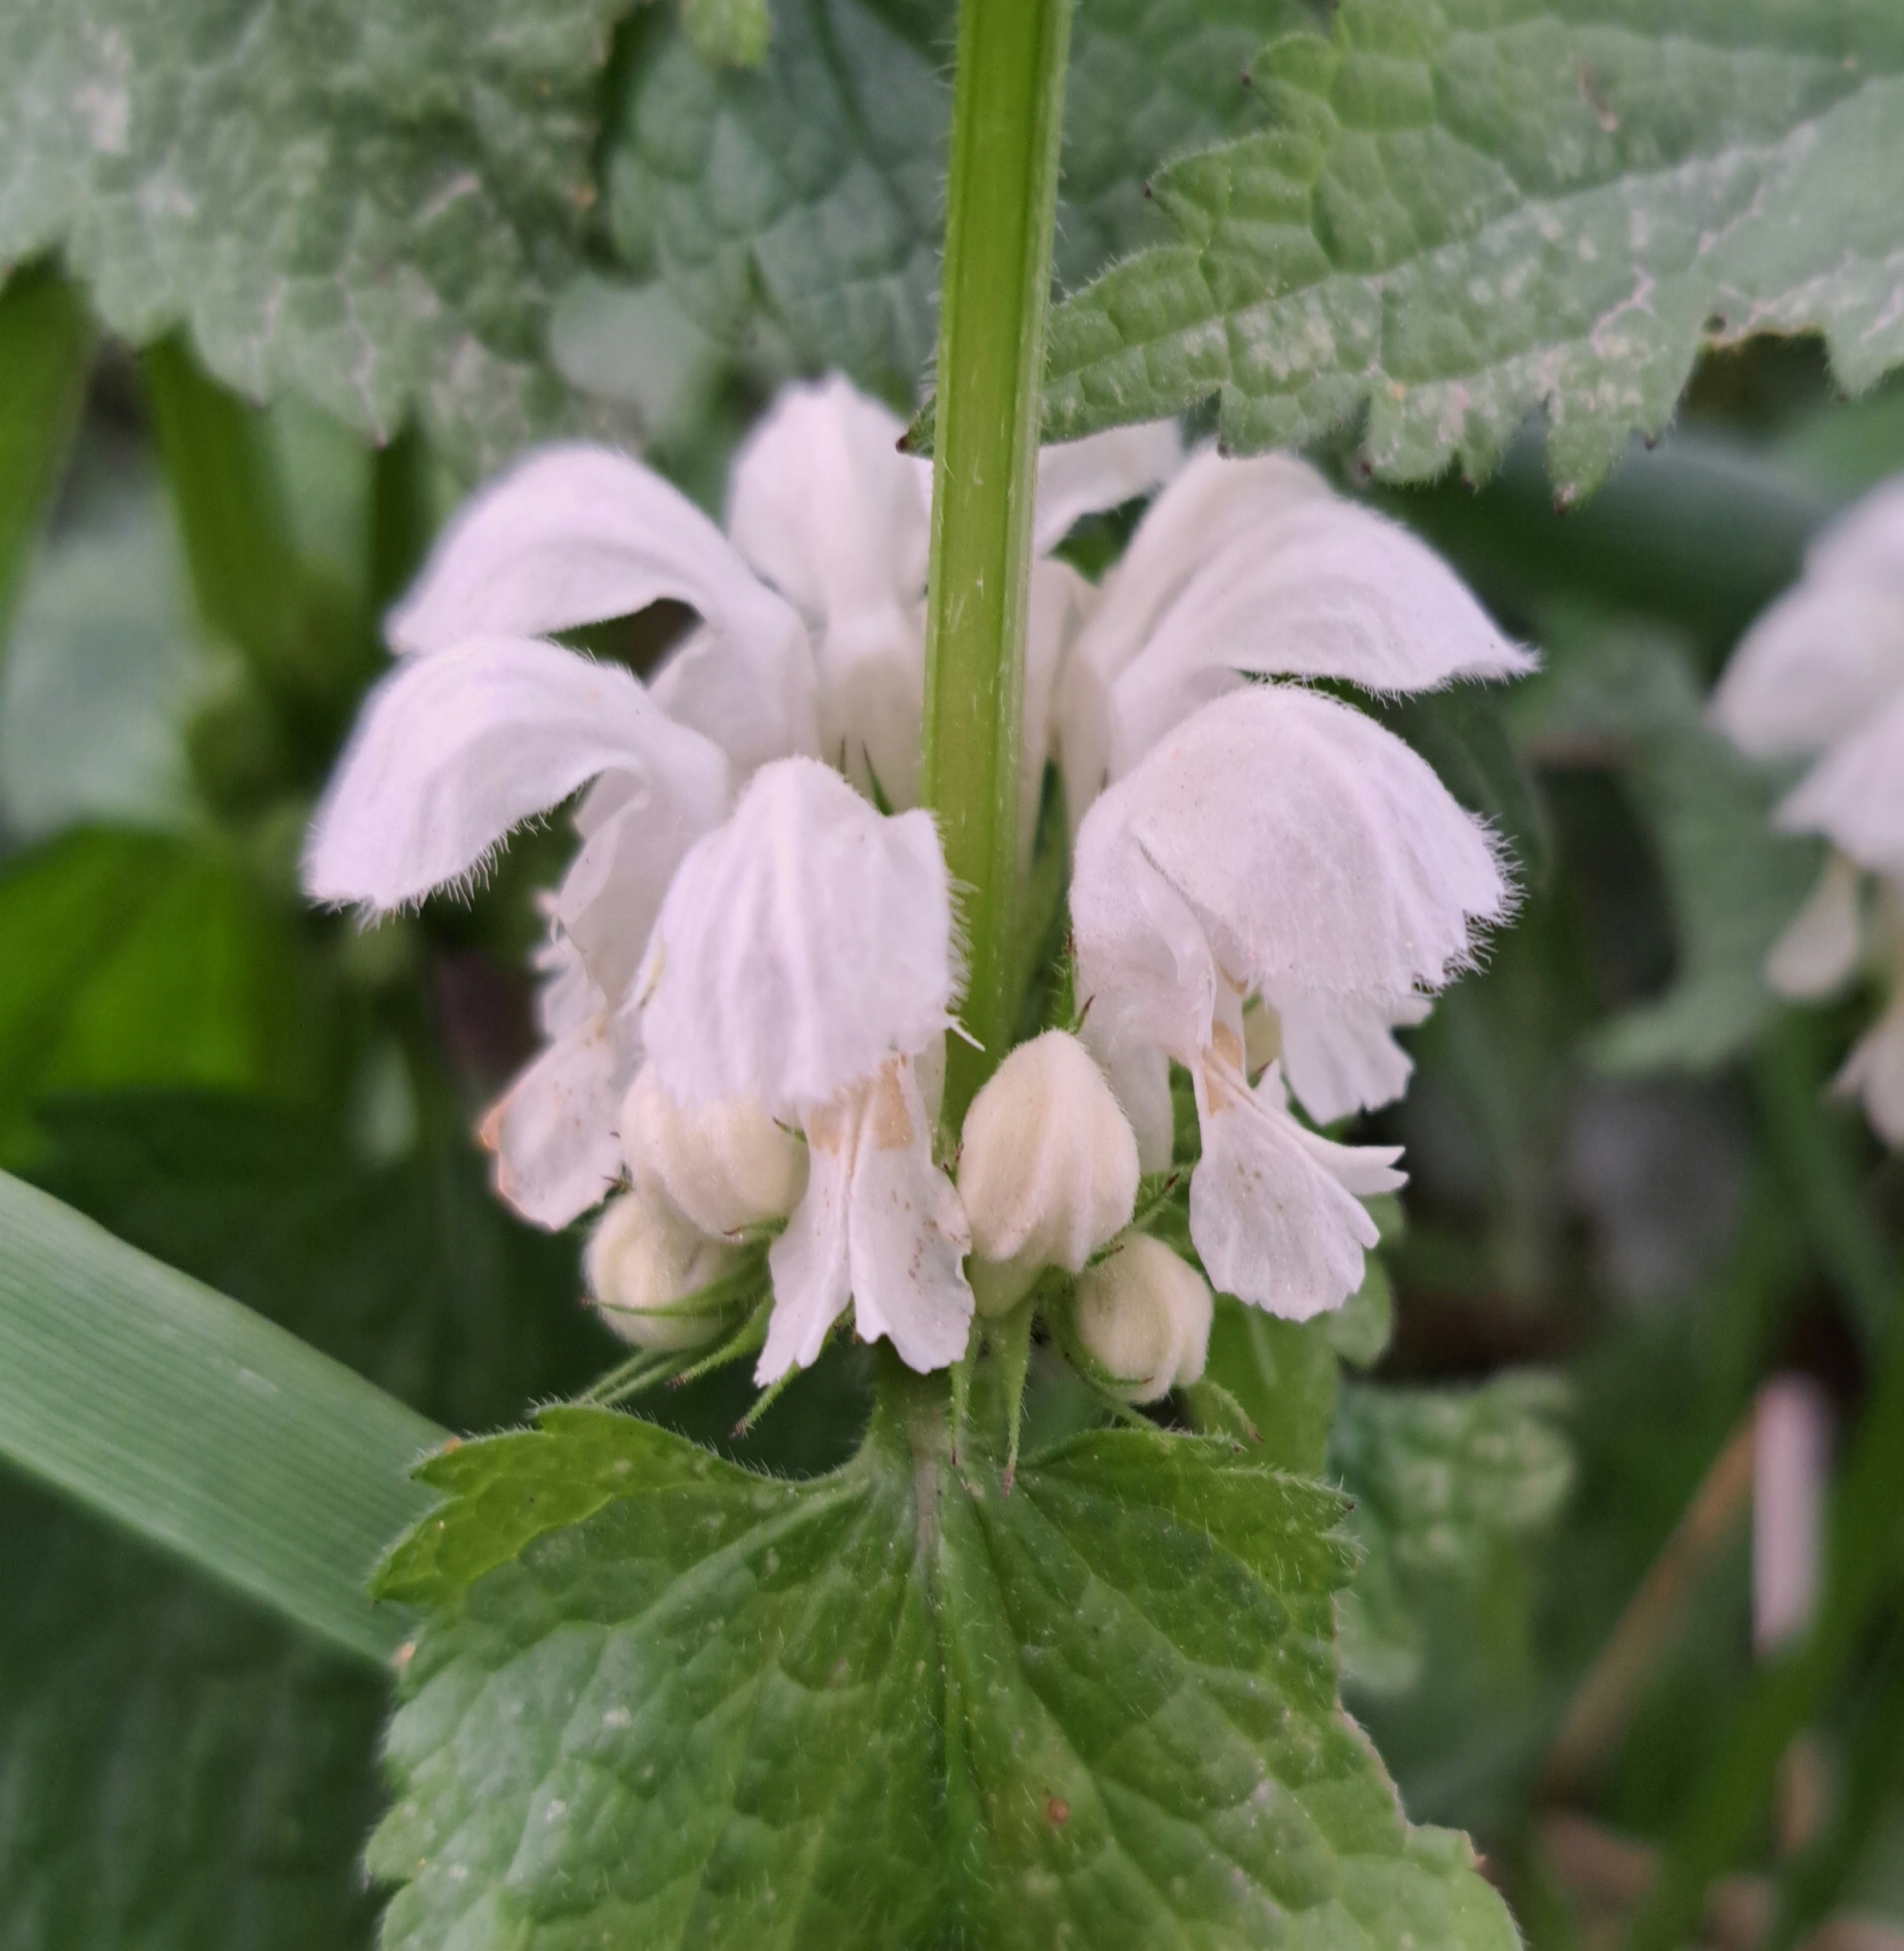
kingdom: Plantae
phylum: Tracheophyta
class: Magnoliopsida
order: Lamiales
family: Lamiaceae
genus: Lamium
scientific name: Lamium album
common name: White dead-nettle
